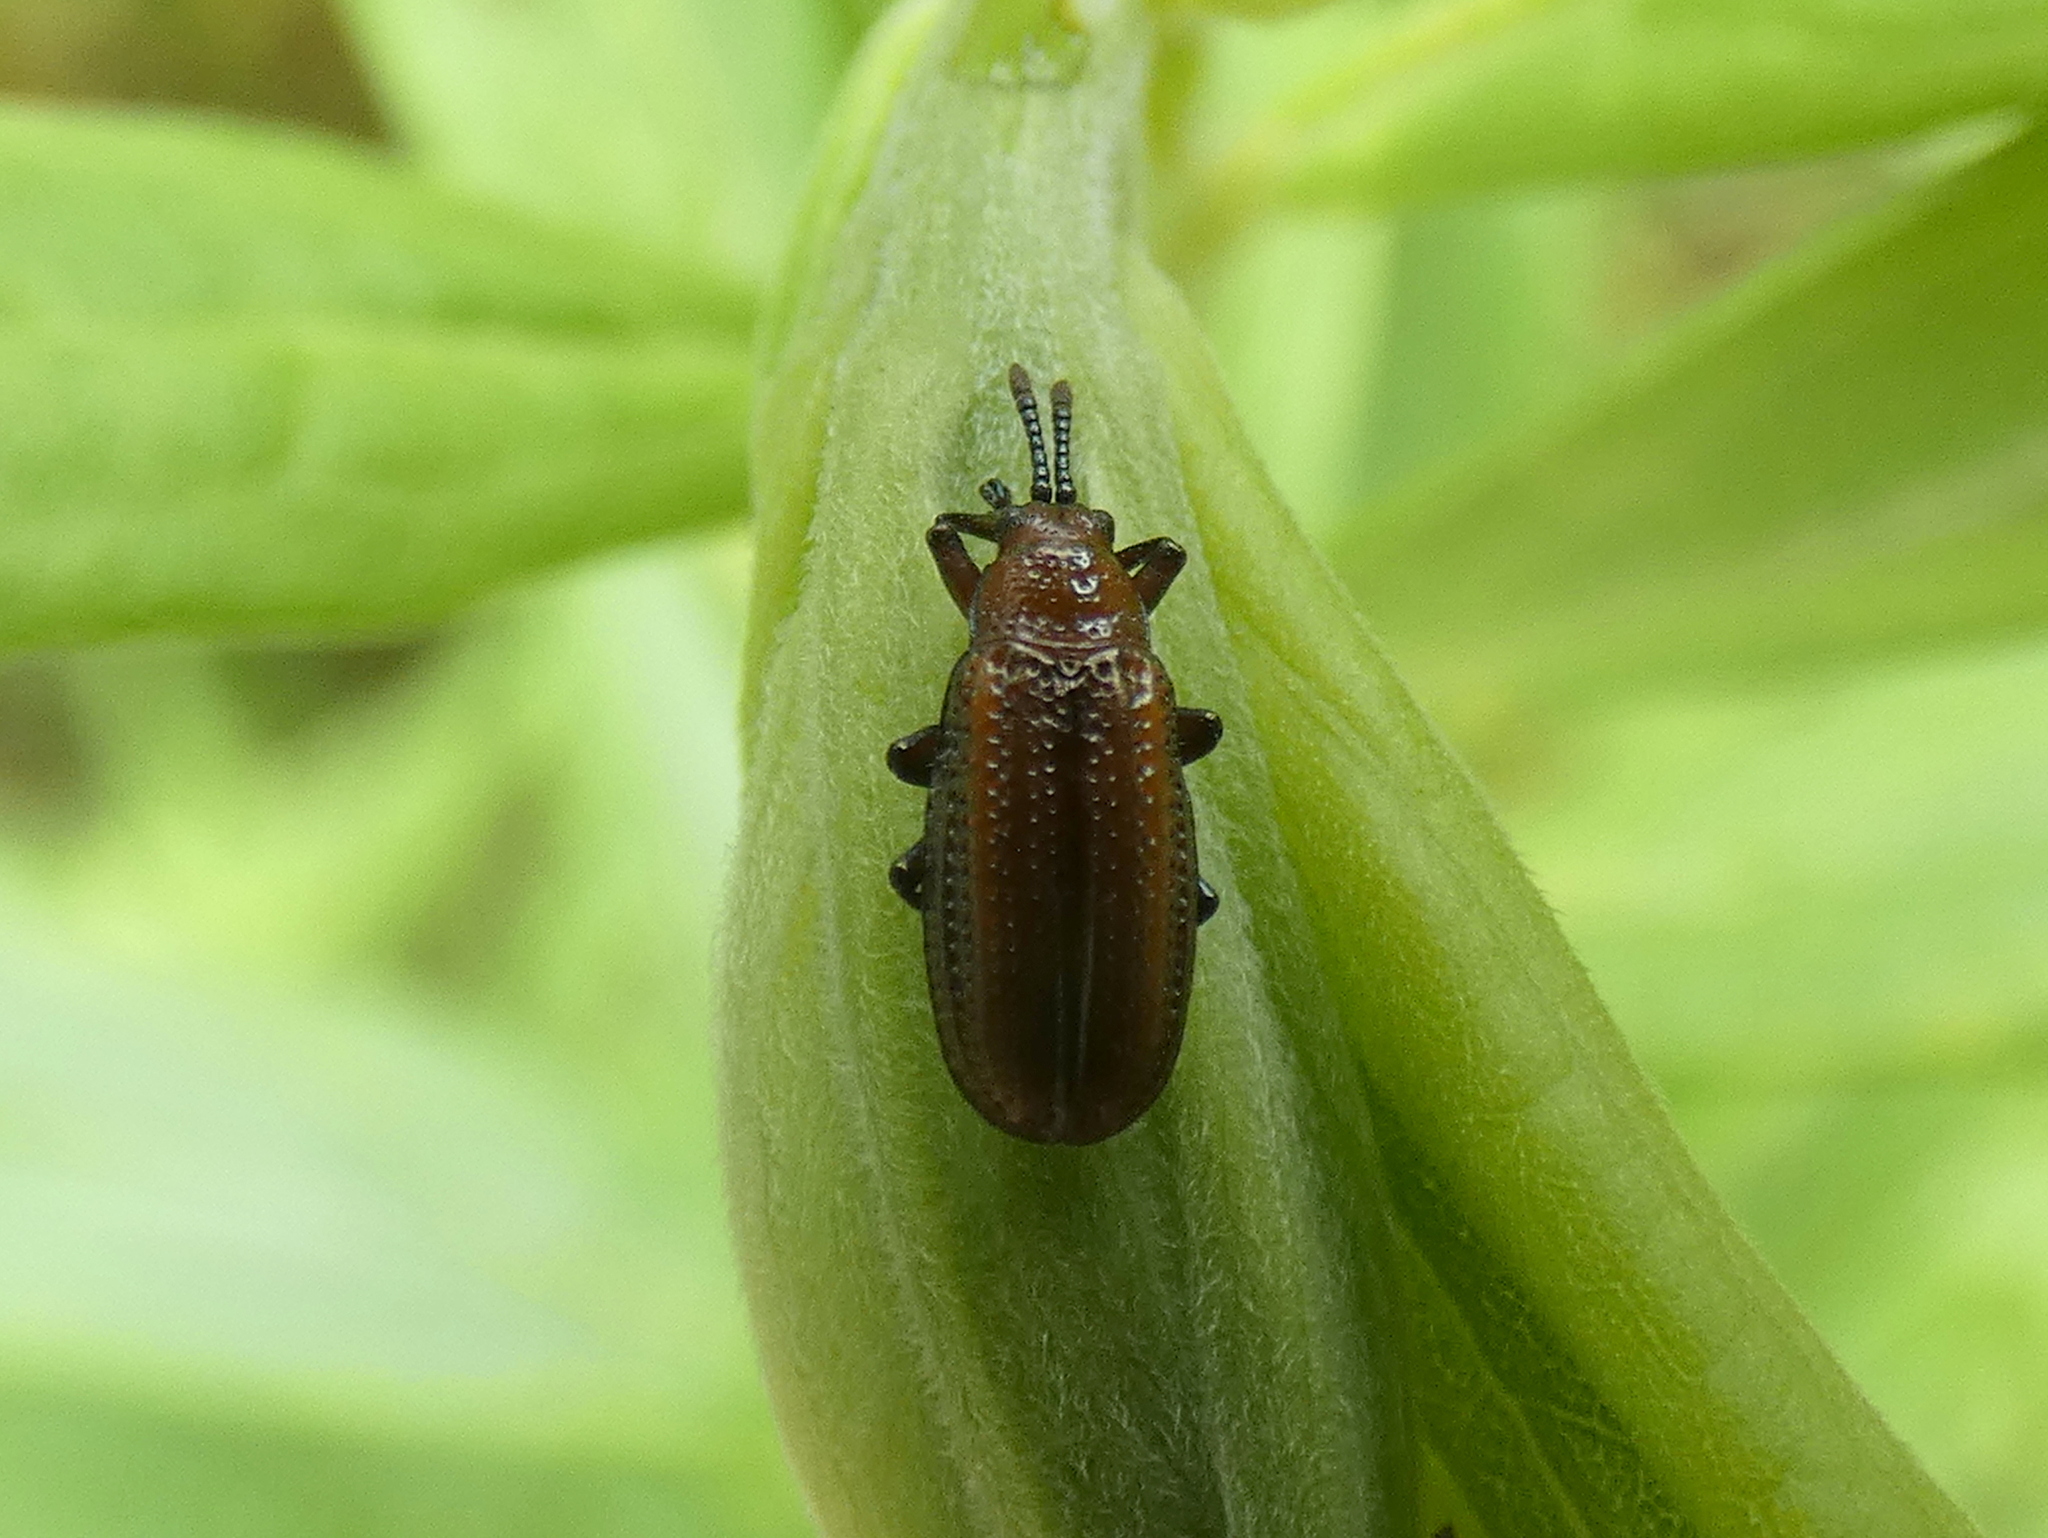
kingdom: Animalia
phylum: Arthropoda
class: Insecta
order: Coleoptera
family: Chrysomelidae
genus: Microrhopala
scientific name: Microrhopala vittata
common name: Goldenrod leaf miner beetle
